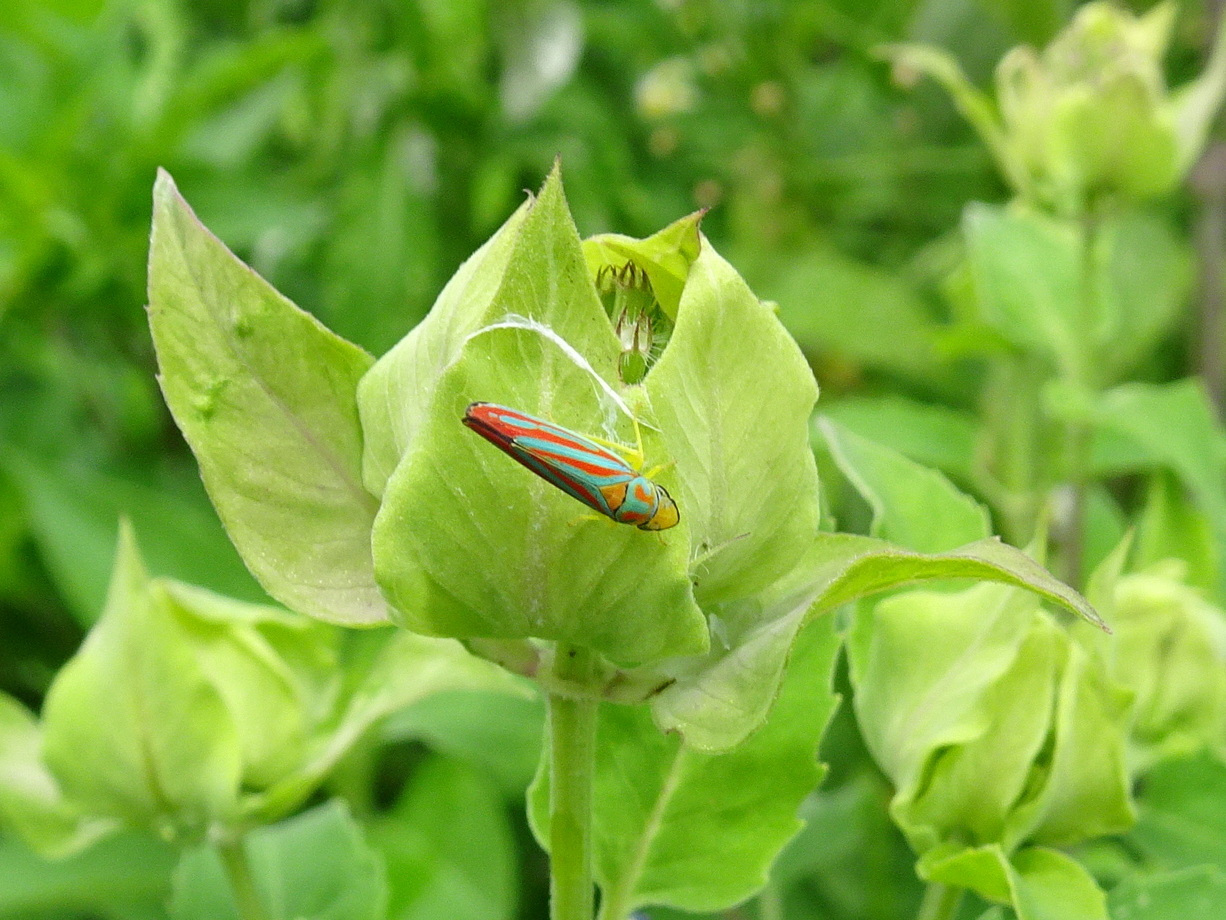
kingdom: Animalia
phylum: Arthropoda
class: Insecta
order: Hemiptera
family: Cicadellidae
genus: Graphocephala
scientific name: Graphocephala coccinea
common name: Candy-striped leafhopper
